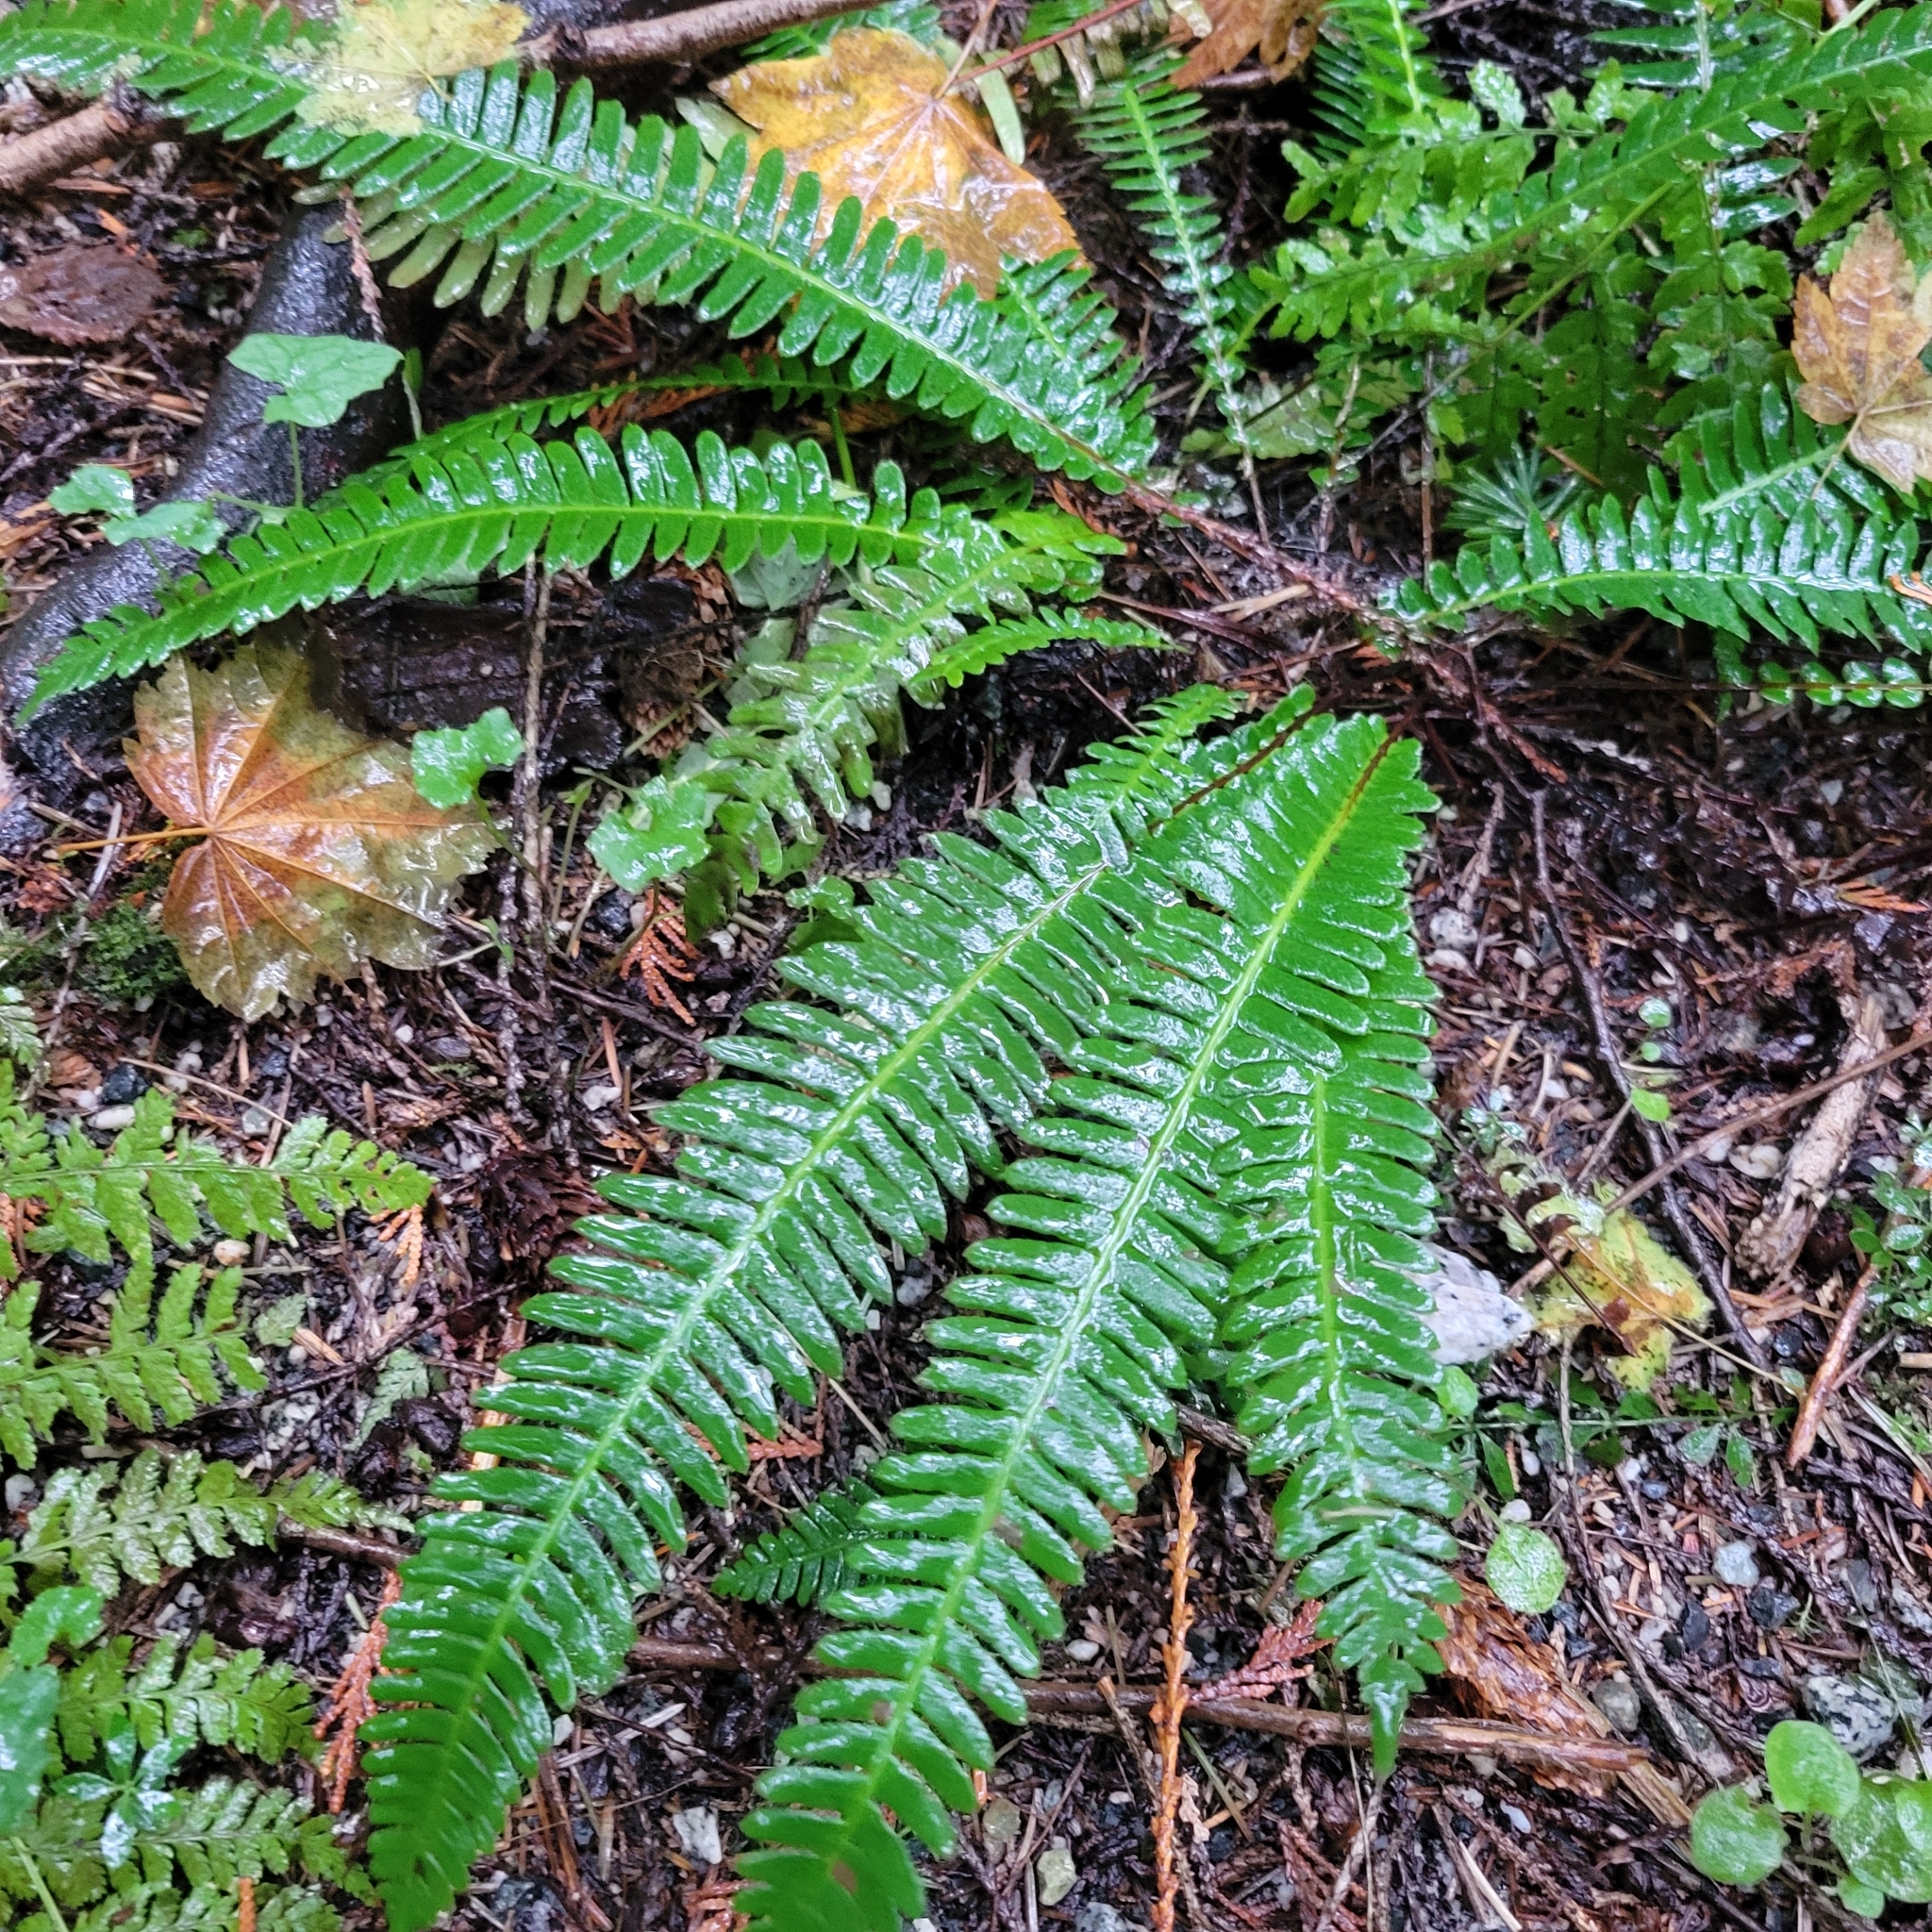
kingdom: Plantae
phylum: Tracheophyta
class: Polypodiopsida
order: Polypodiales
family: Blechnaceae
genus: Struthiopteris
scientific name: Struthiopteris spicant
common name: Deer fern
